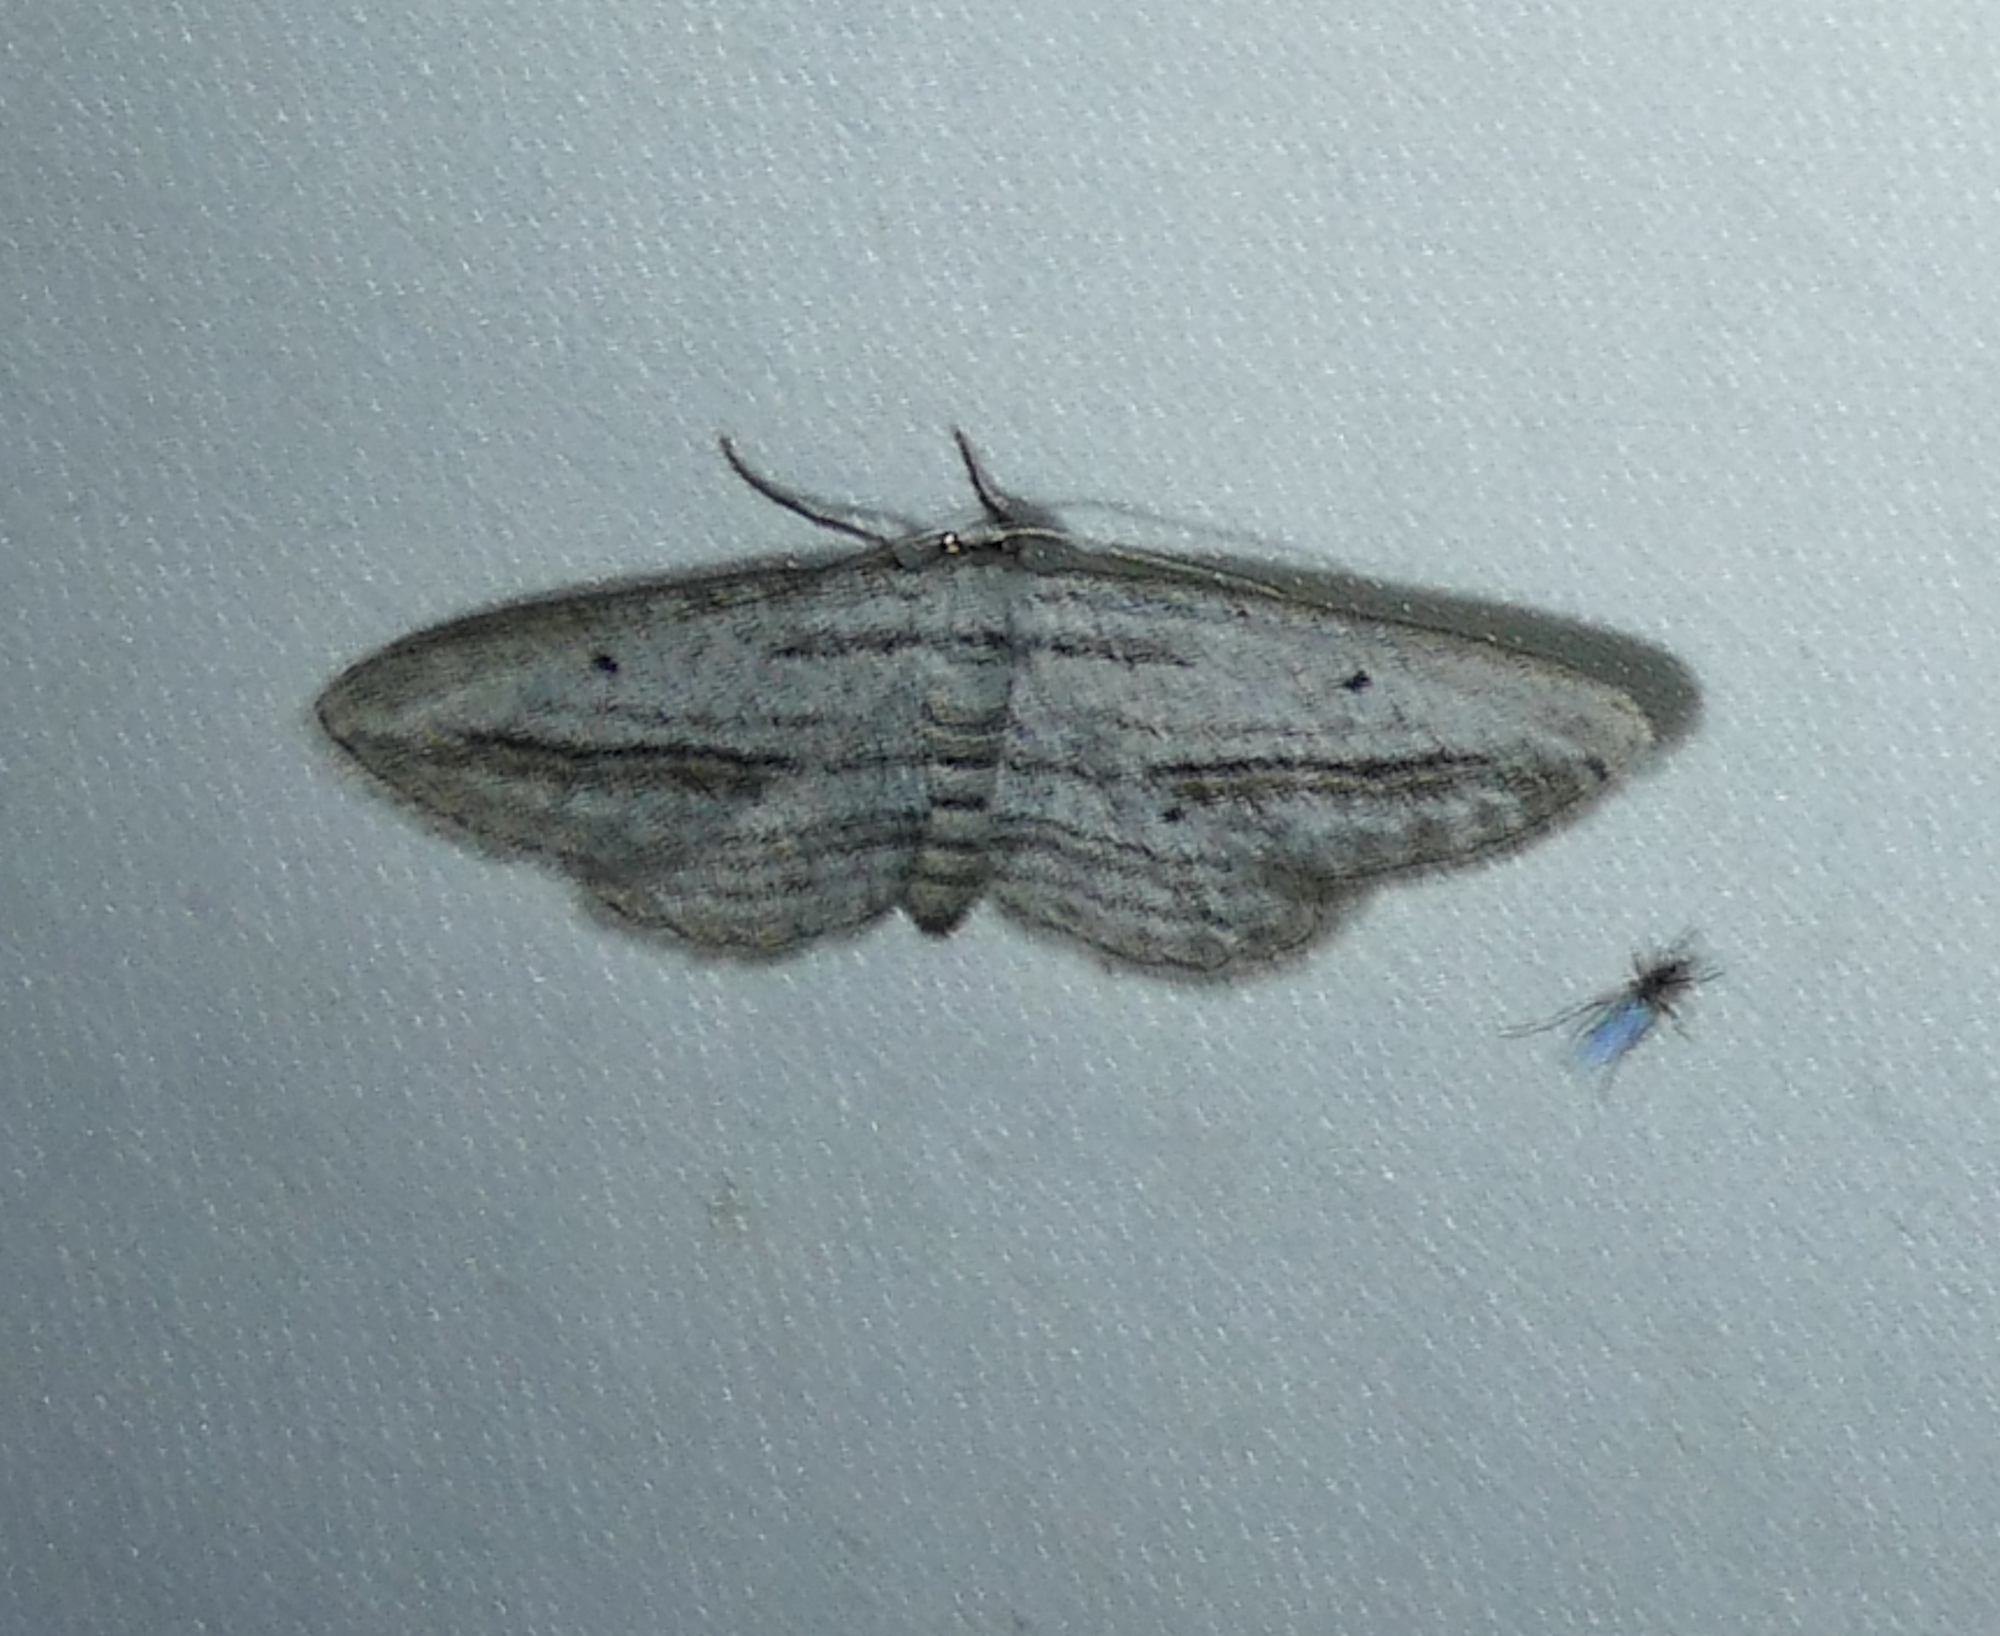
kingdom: Animalia
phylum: Arthropoda
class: Insecta
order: Lepidoptera
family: Geometridae
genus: Glena
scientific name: Glena quinquelinearia
